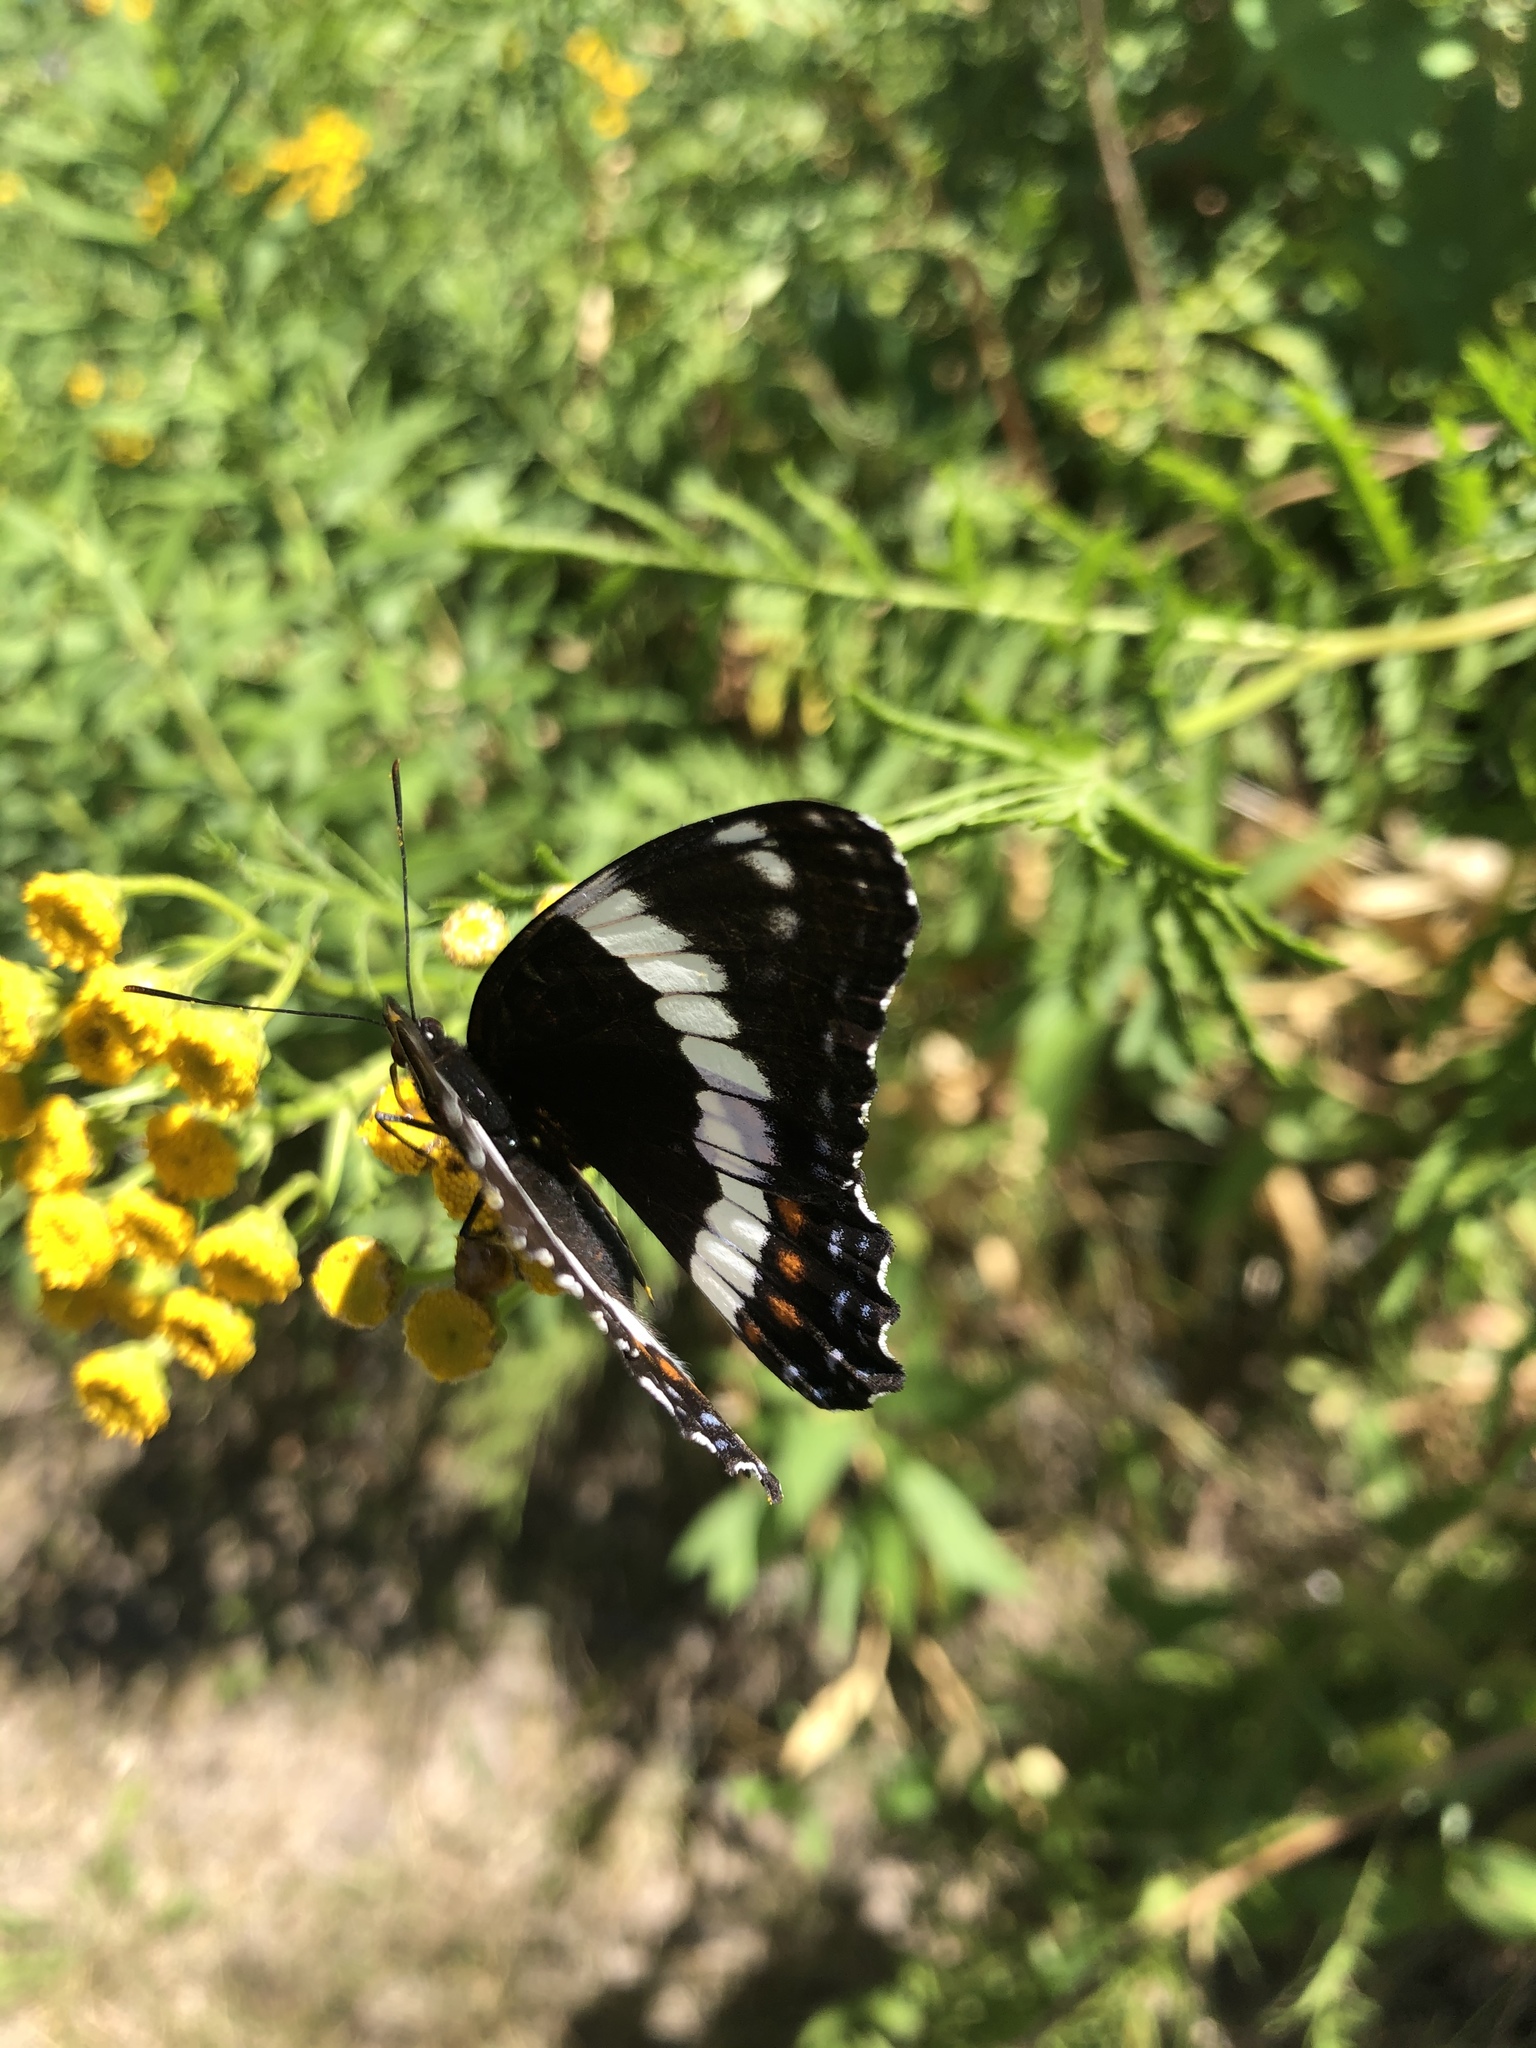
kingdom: Animalia
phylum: Arthropoda
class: Insecta
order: Lepidoptera
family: Nymphalidae
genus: Limenitis
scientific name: Limenitis arthemis
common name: Red-spotted admiral
